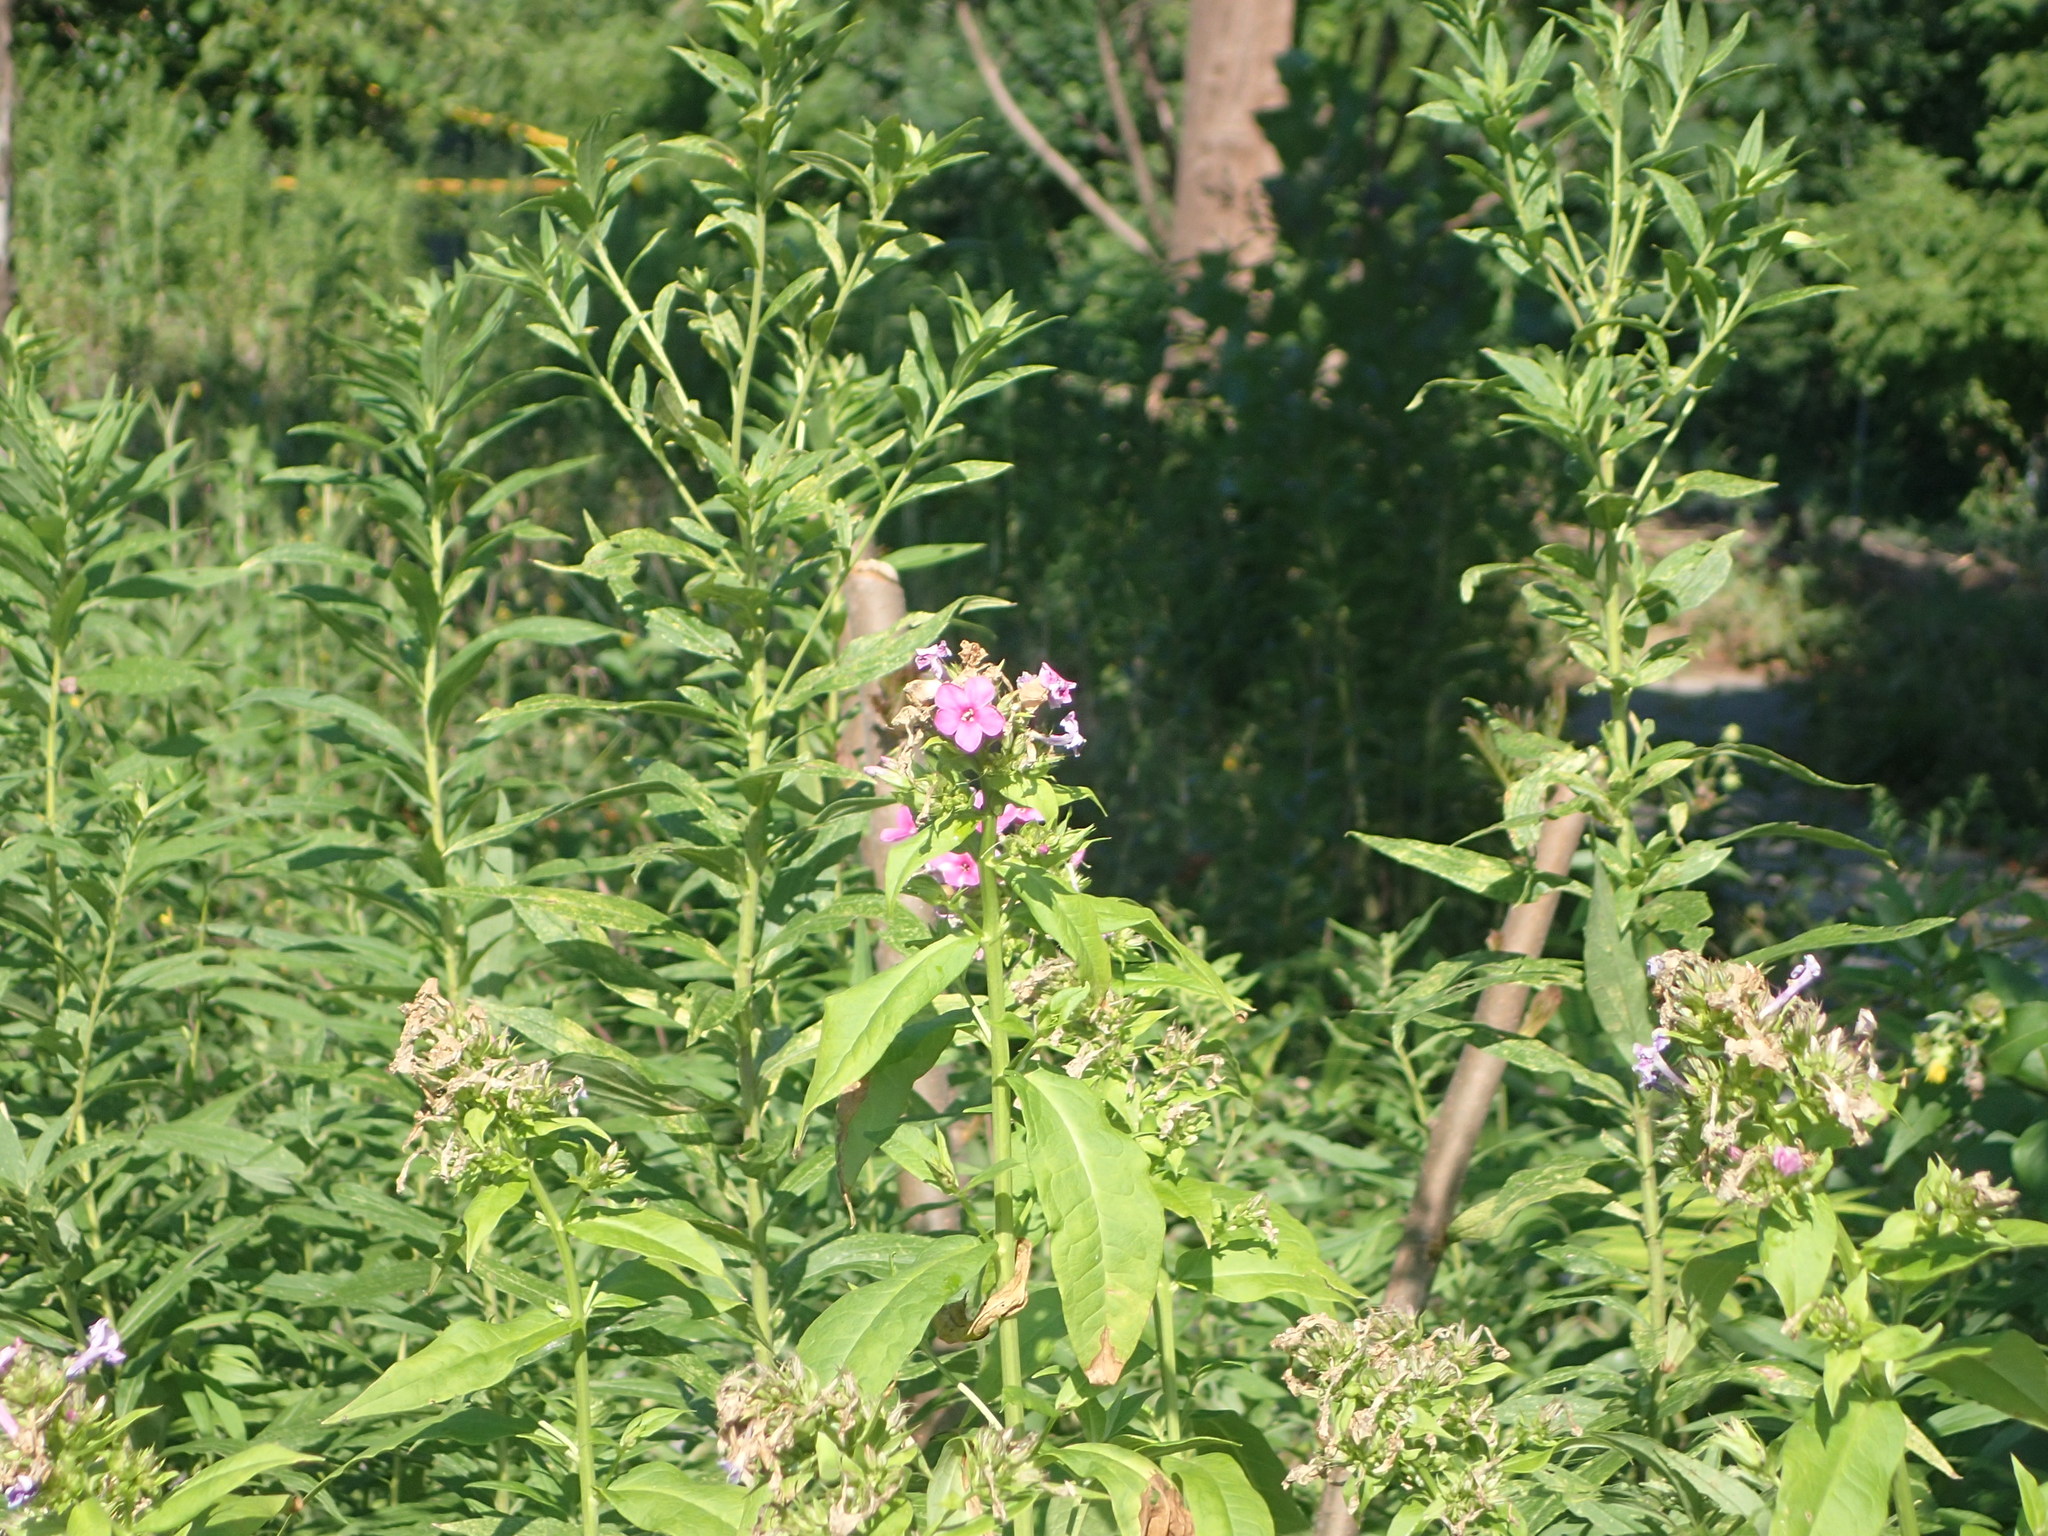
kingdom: Plantae
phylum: Tracheophyta
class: Magnoliopsida
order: Ericales
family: Polemoniaceae
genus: Phlox
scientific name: Phlox paniculata
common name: Fall phlox
